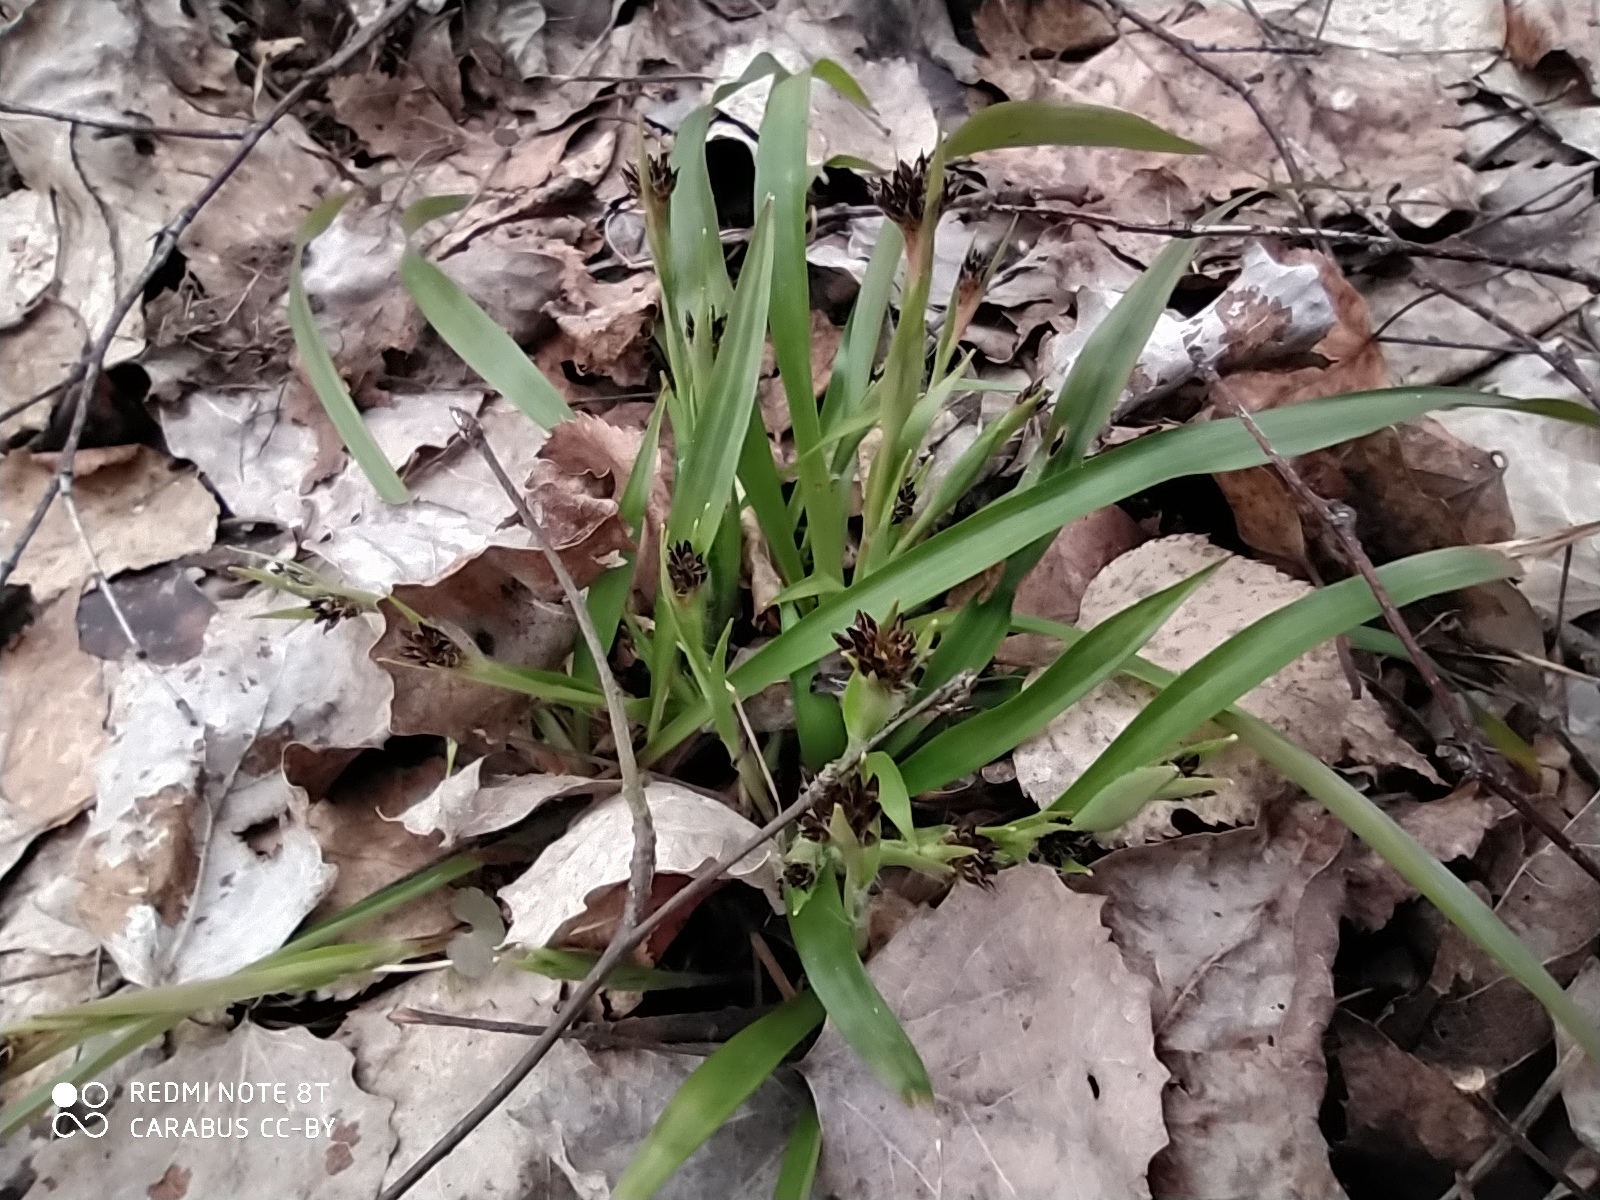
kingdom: Plantae
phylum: Tracheophyta
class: Liliopsida
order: Poales
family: Juncaceae
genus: Luzula
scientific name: Luzula pilosa
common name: Hairy wood-rush
